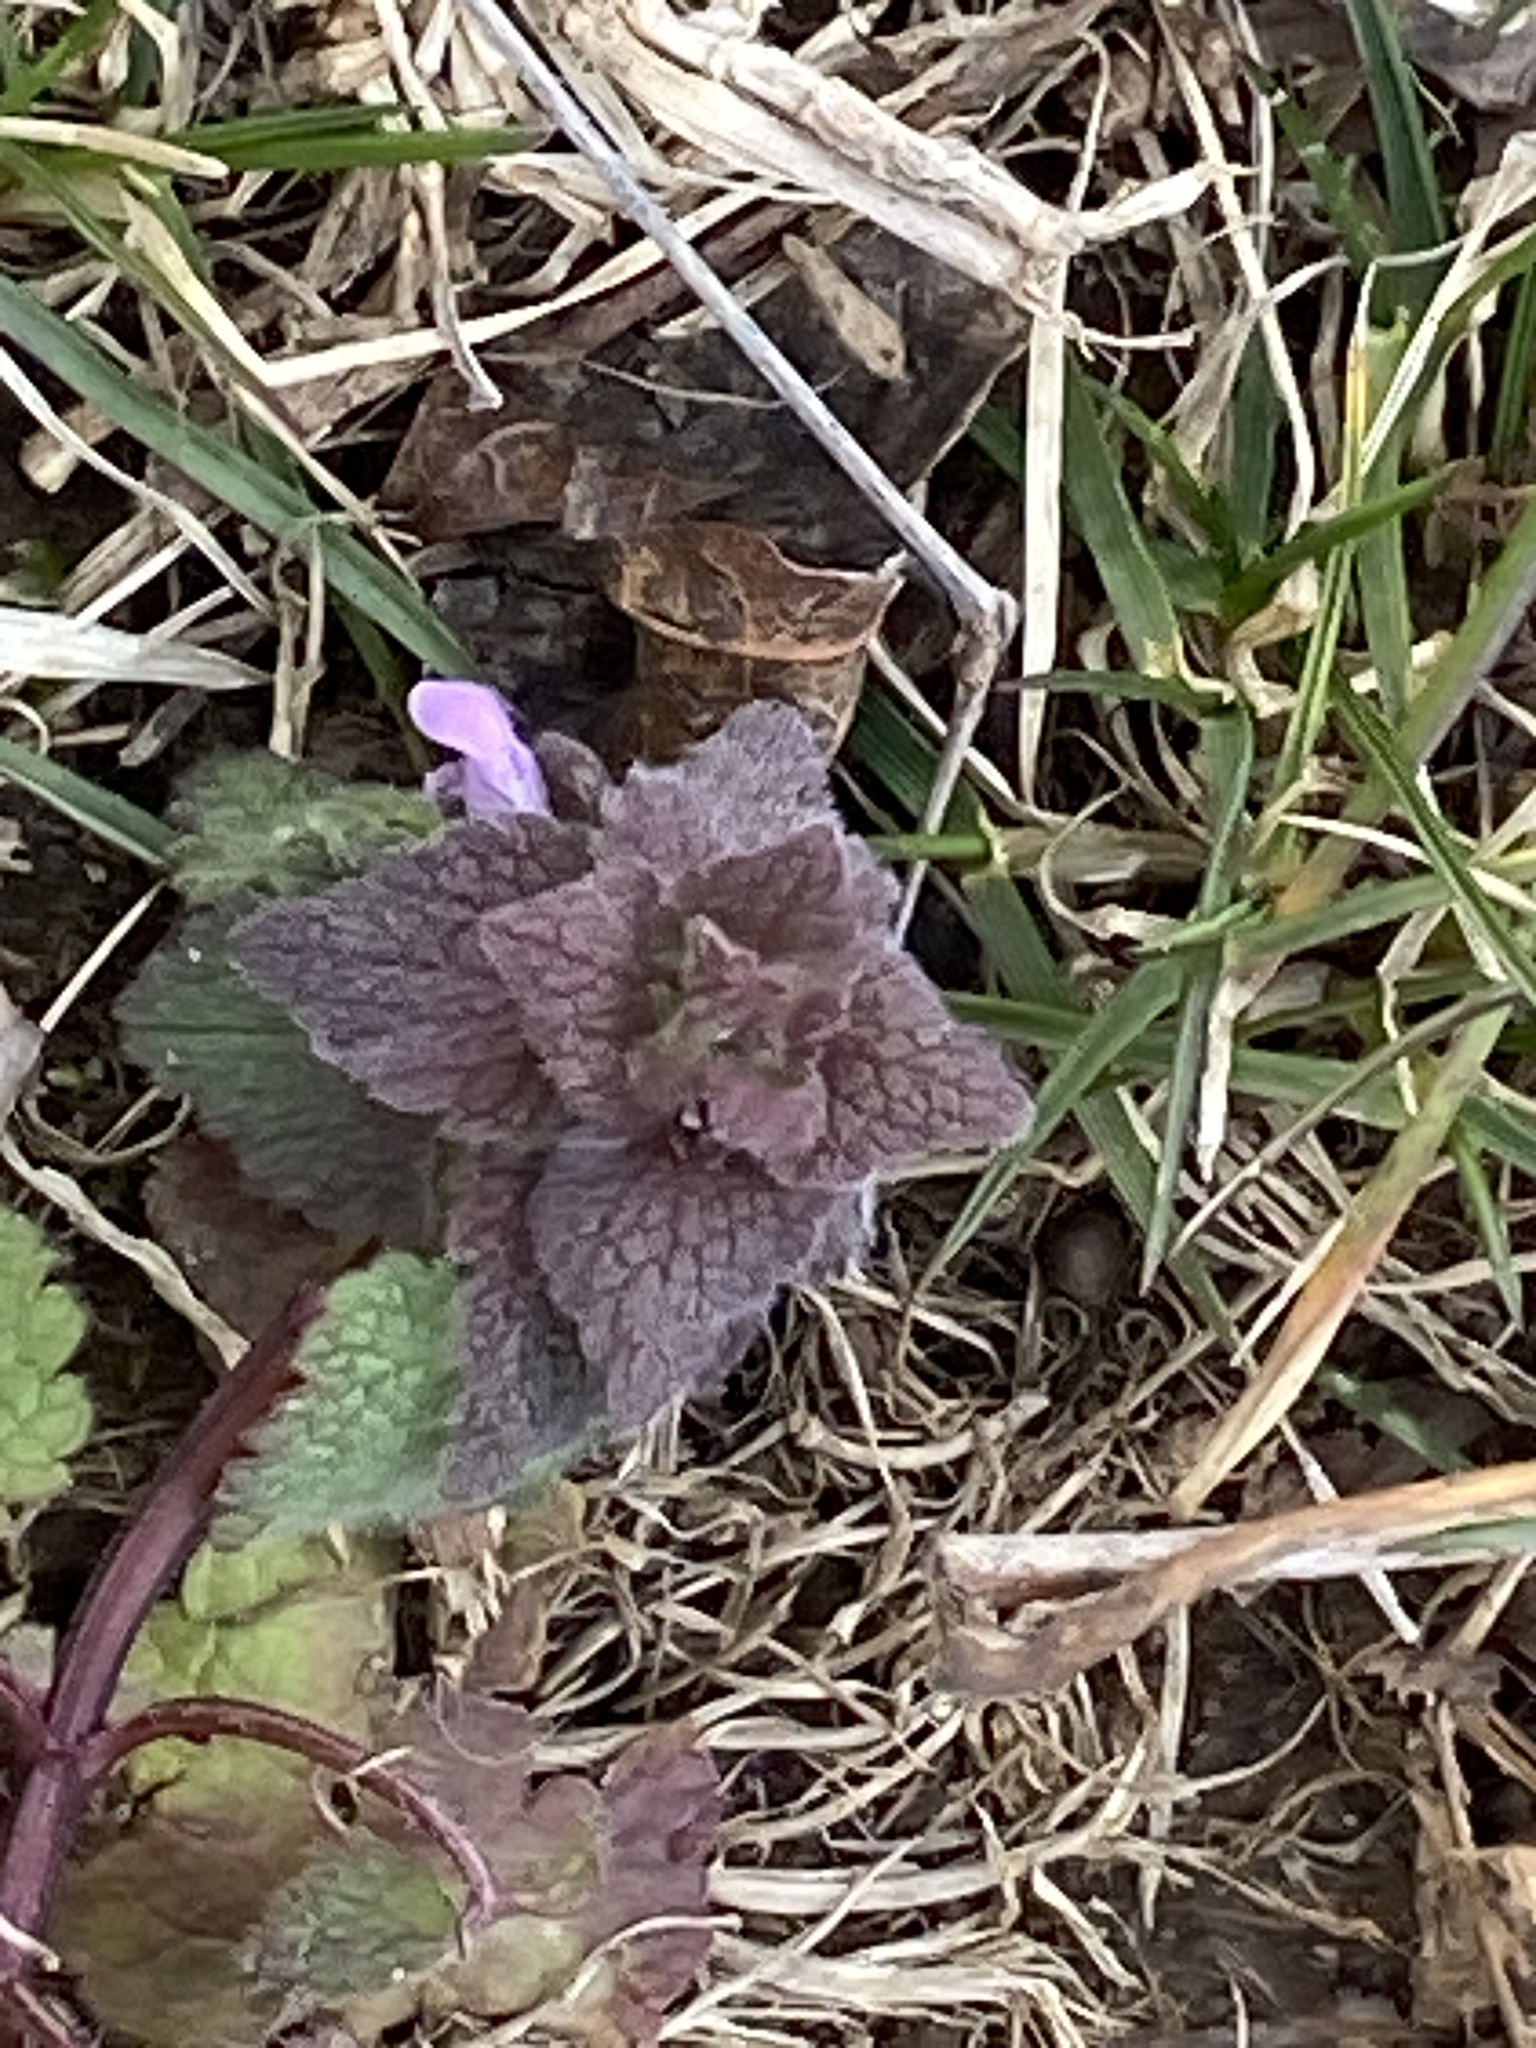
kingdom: Plantae
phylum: Tracheophyta
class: Magnoliopsida
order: Lamiales
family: Lamiaceae
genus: Lamium
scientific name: Lamium purpureum
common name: Red dead-nettle
